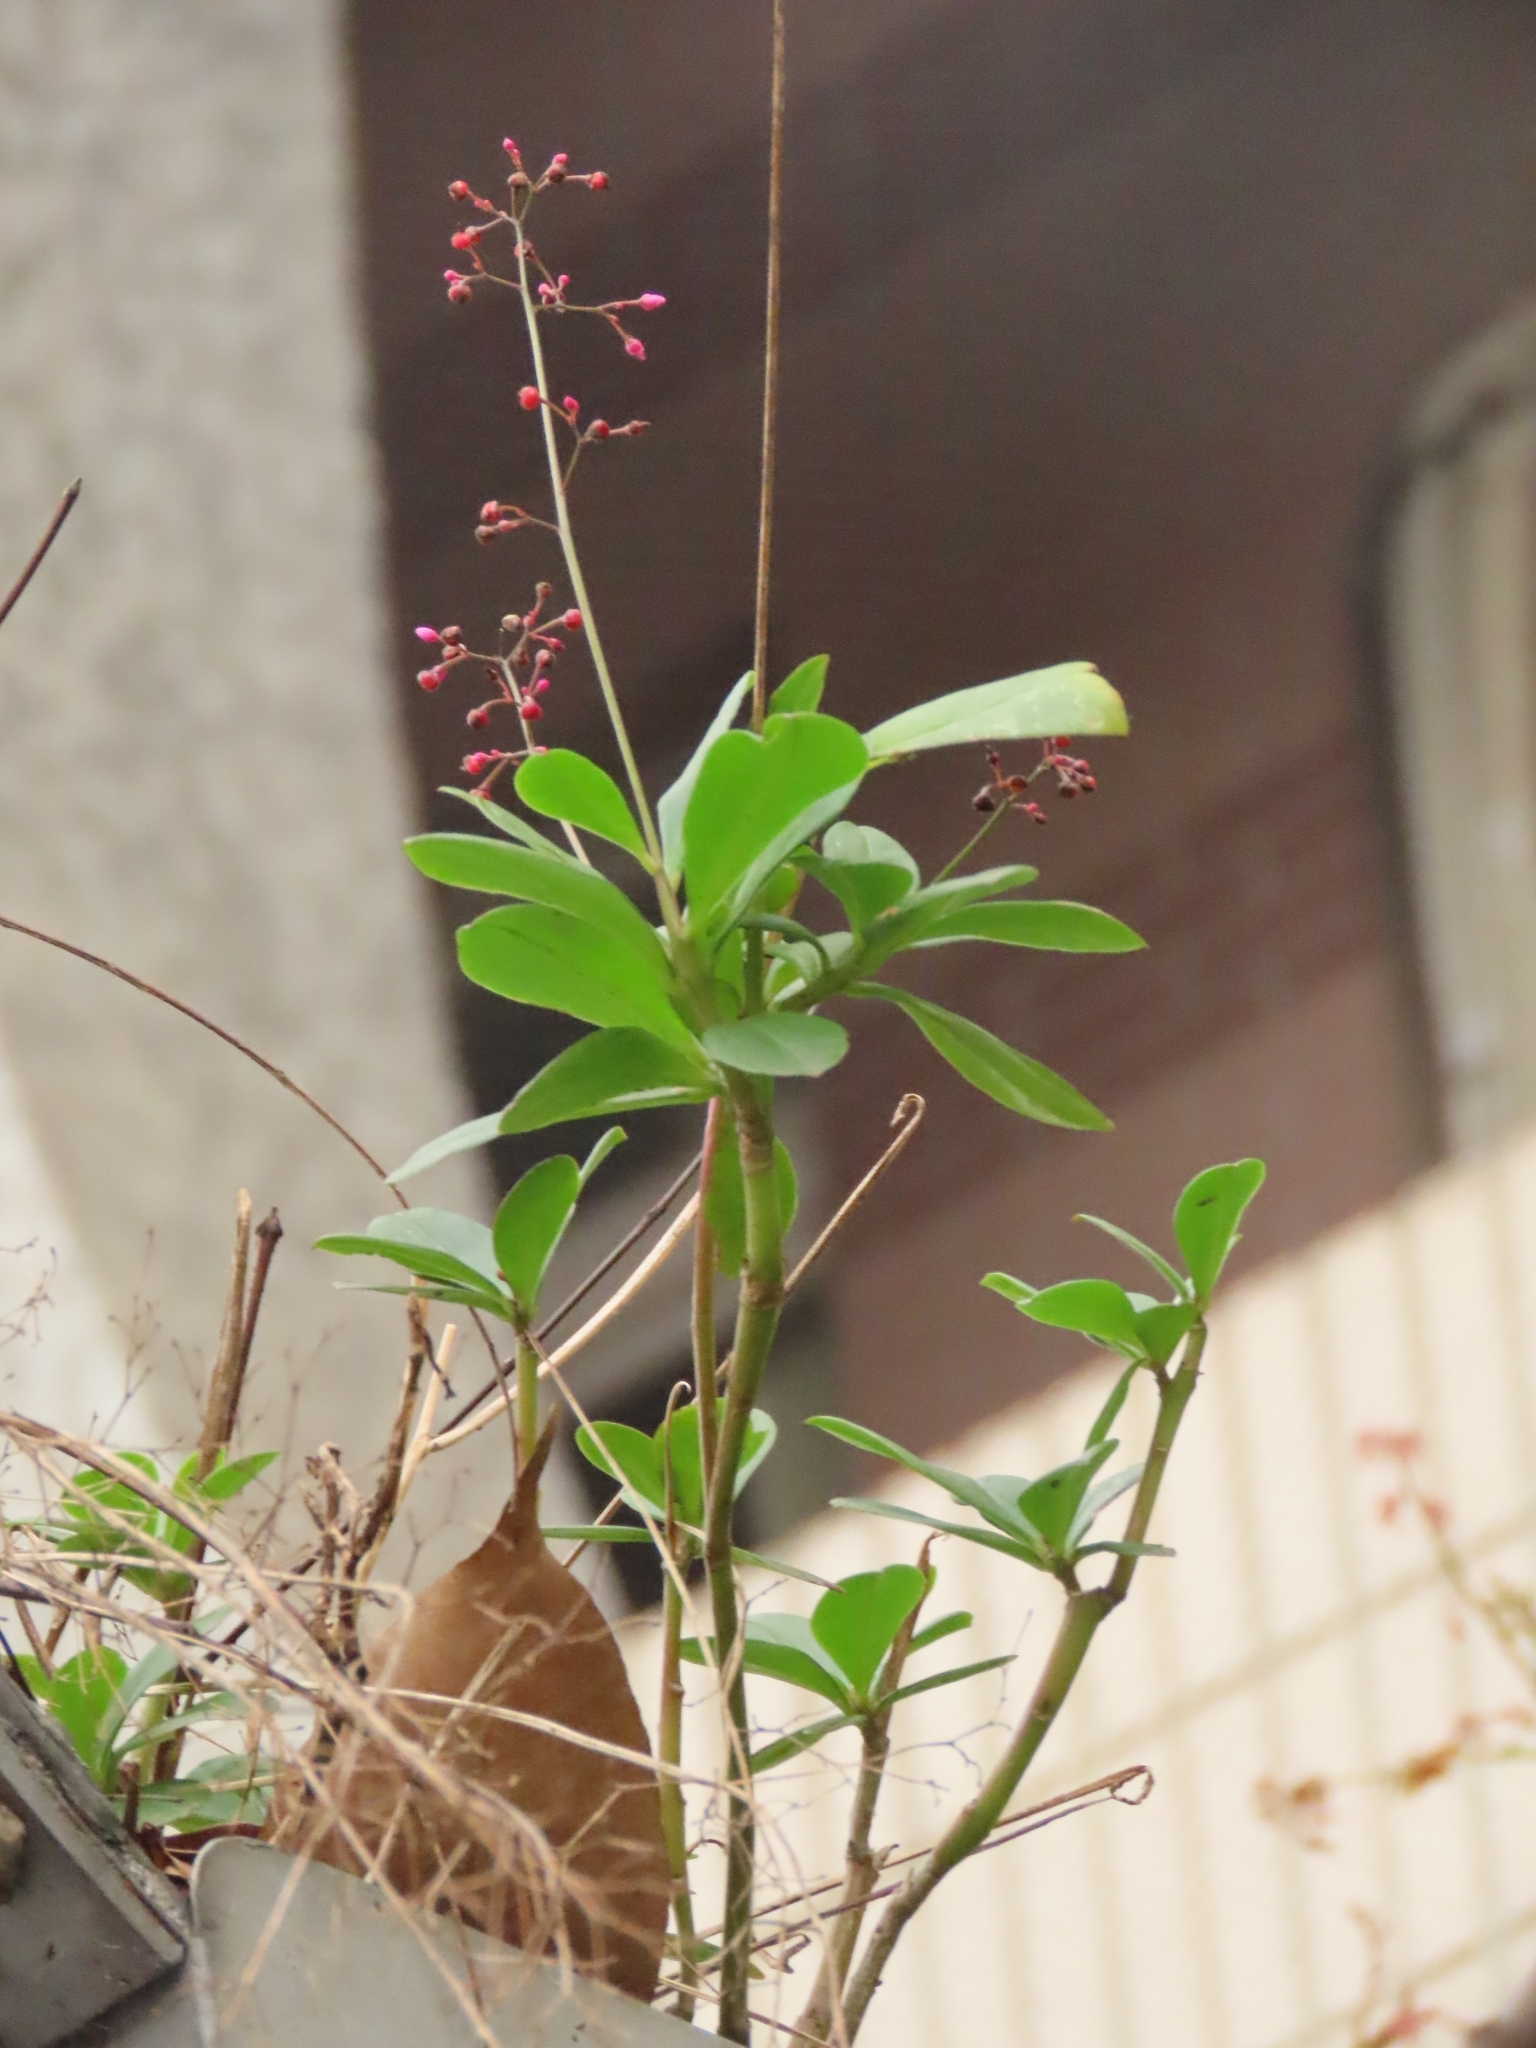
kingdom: Plantae
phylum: Tracheophyta
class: Magnoliopsida
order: Caryophyllales
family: Talinaceae
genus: Talinum
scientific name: Talinum paniculatum
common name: Jewels of opar
